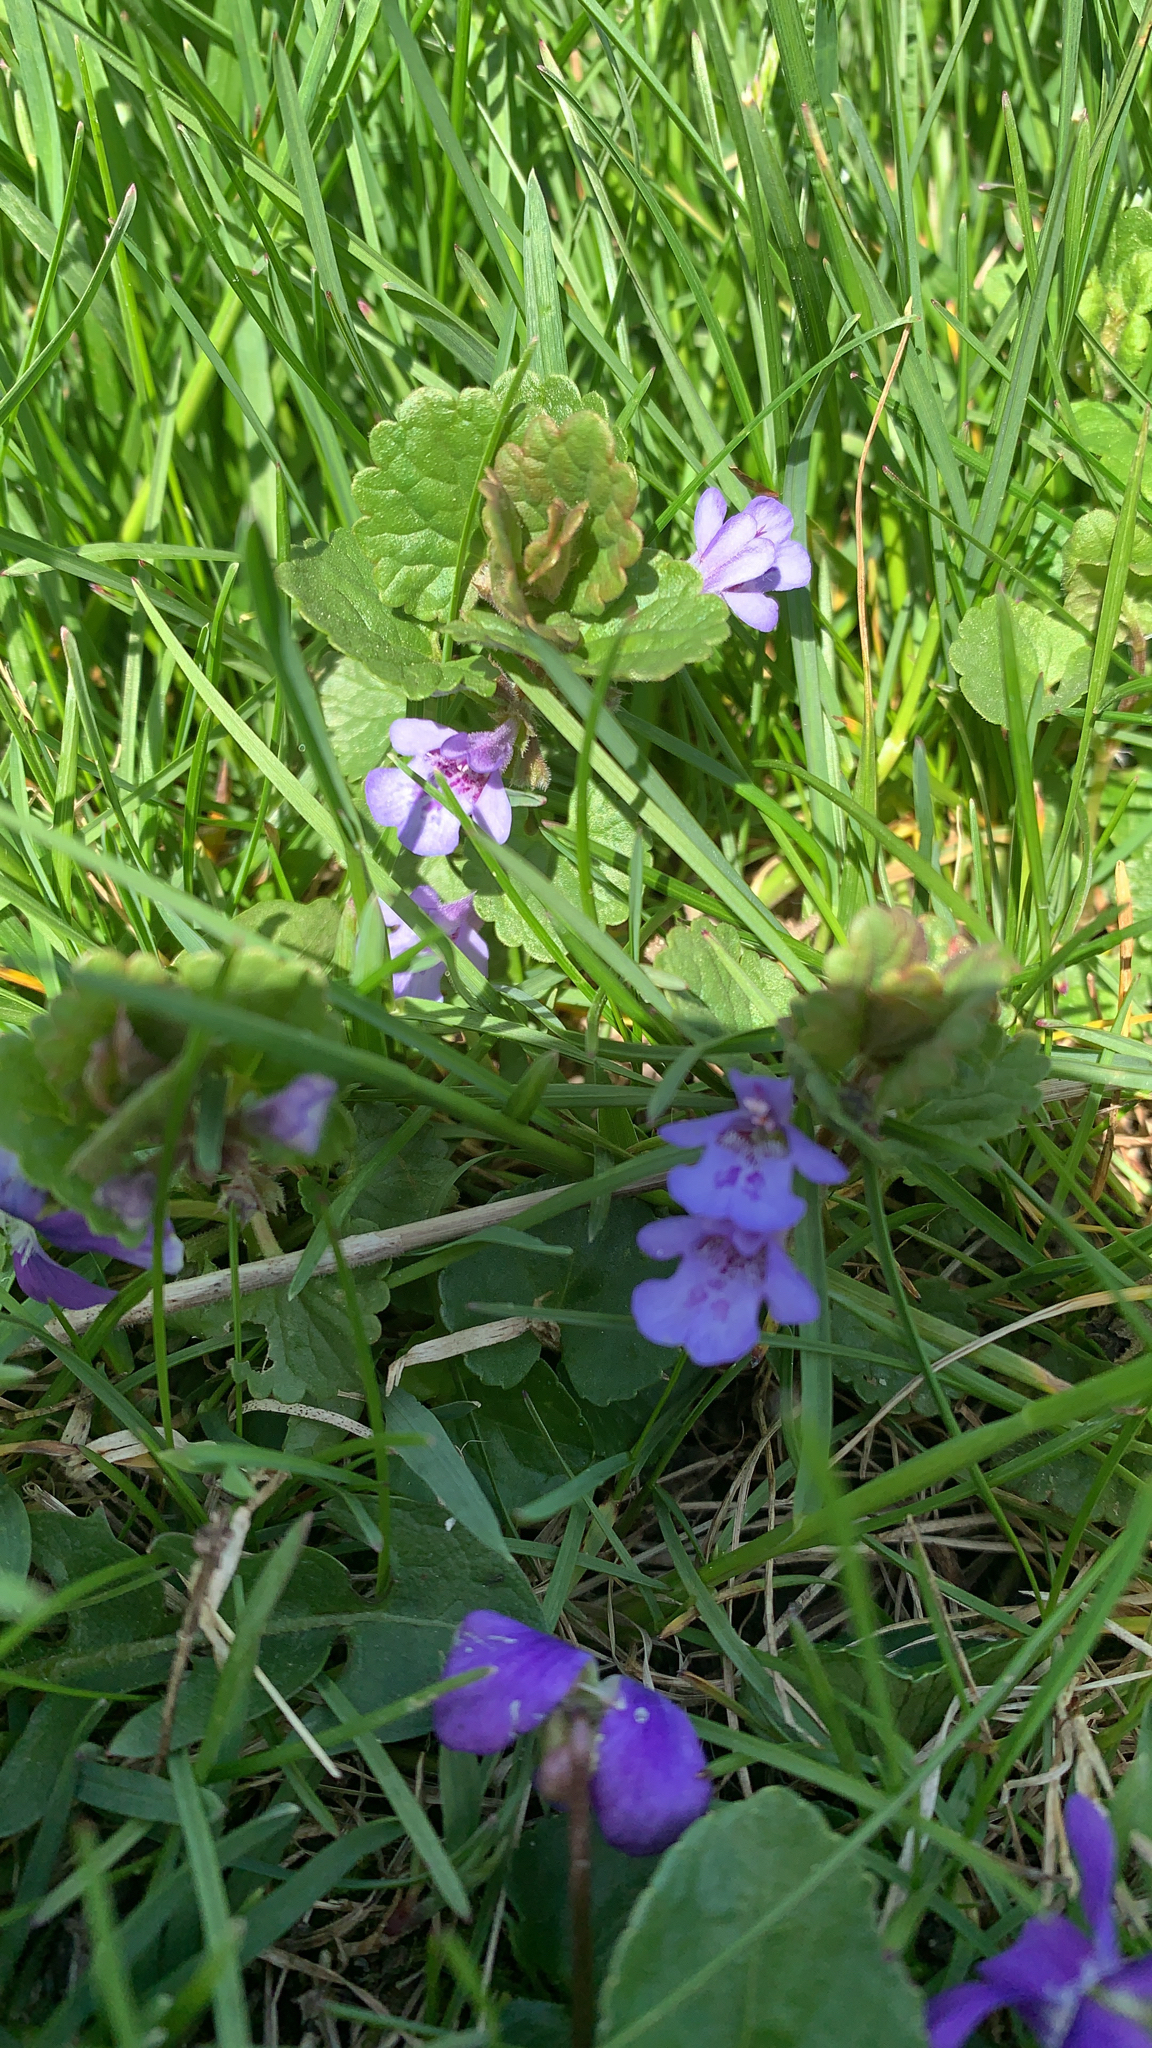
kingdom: Plantae
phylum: Tracheophyta
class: Magnoliopsida
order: Lamiales
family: Lamiaceae
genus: Glechoma
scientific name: Glechoma hederacea
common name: Ground ivy
